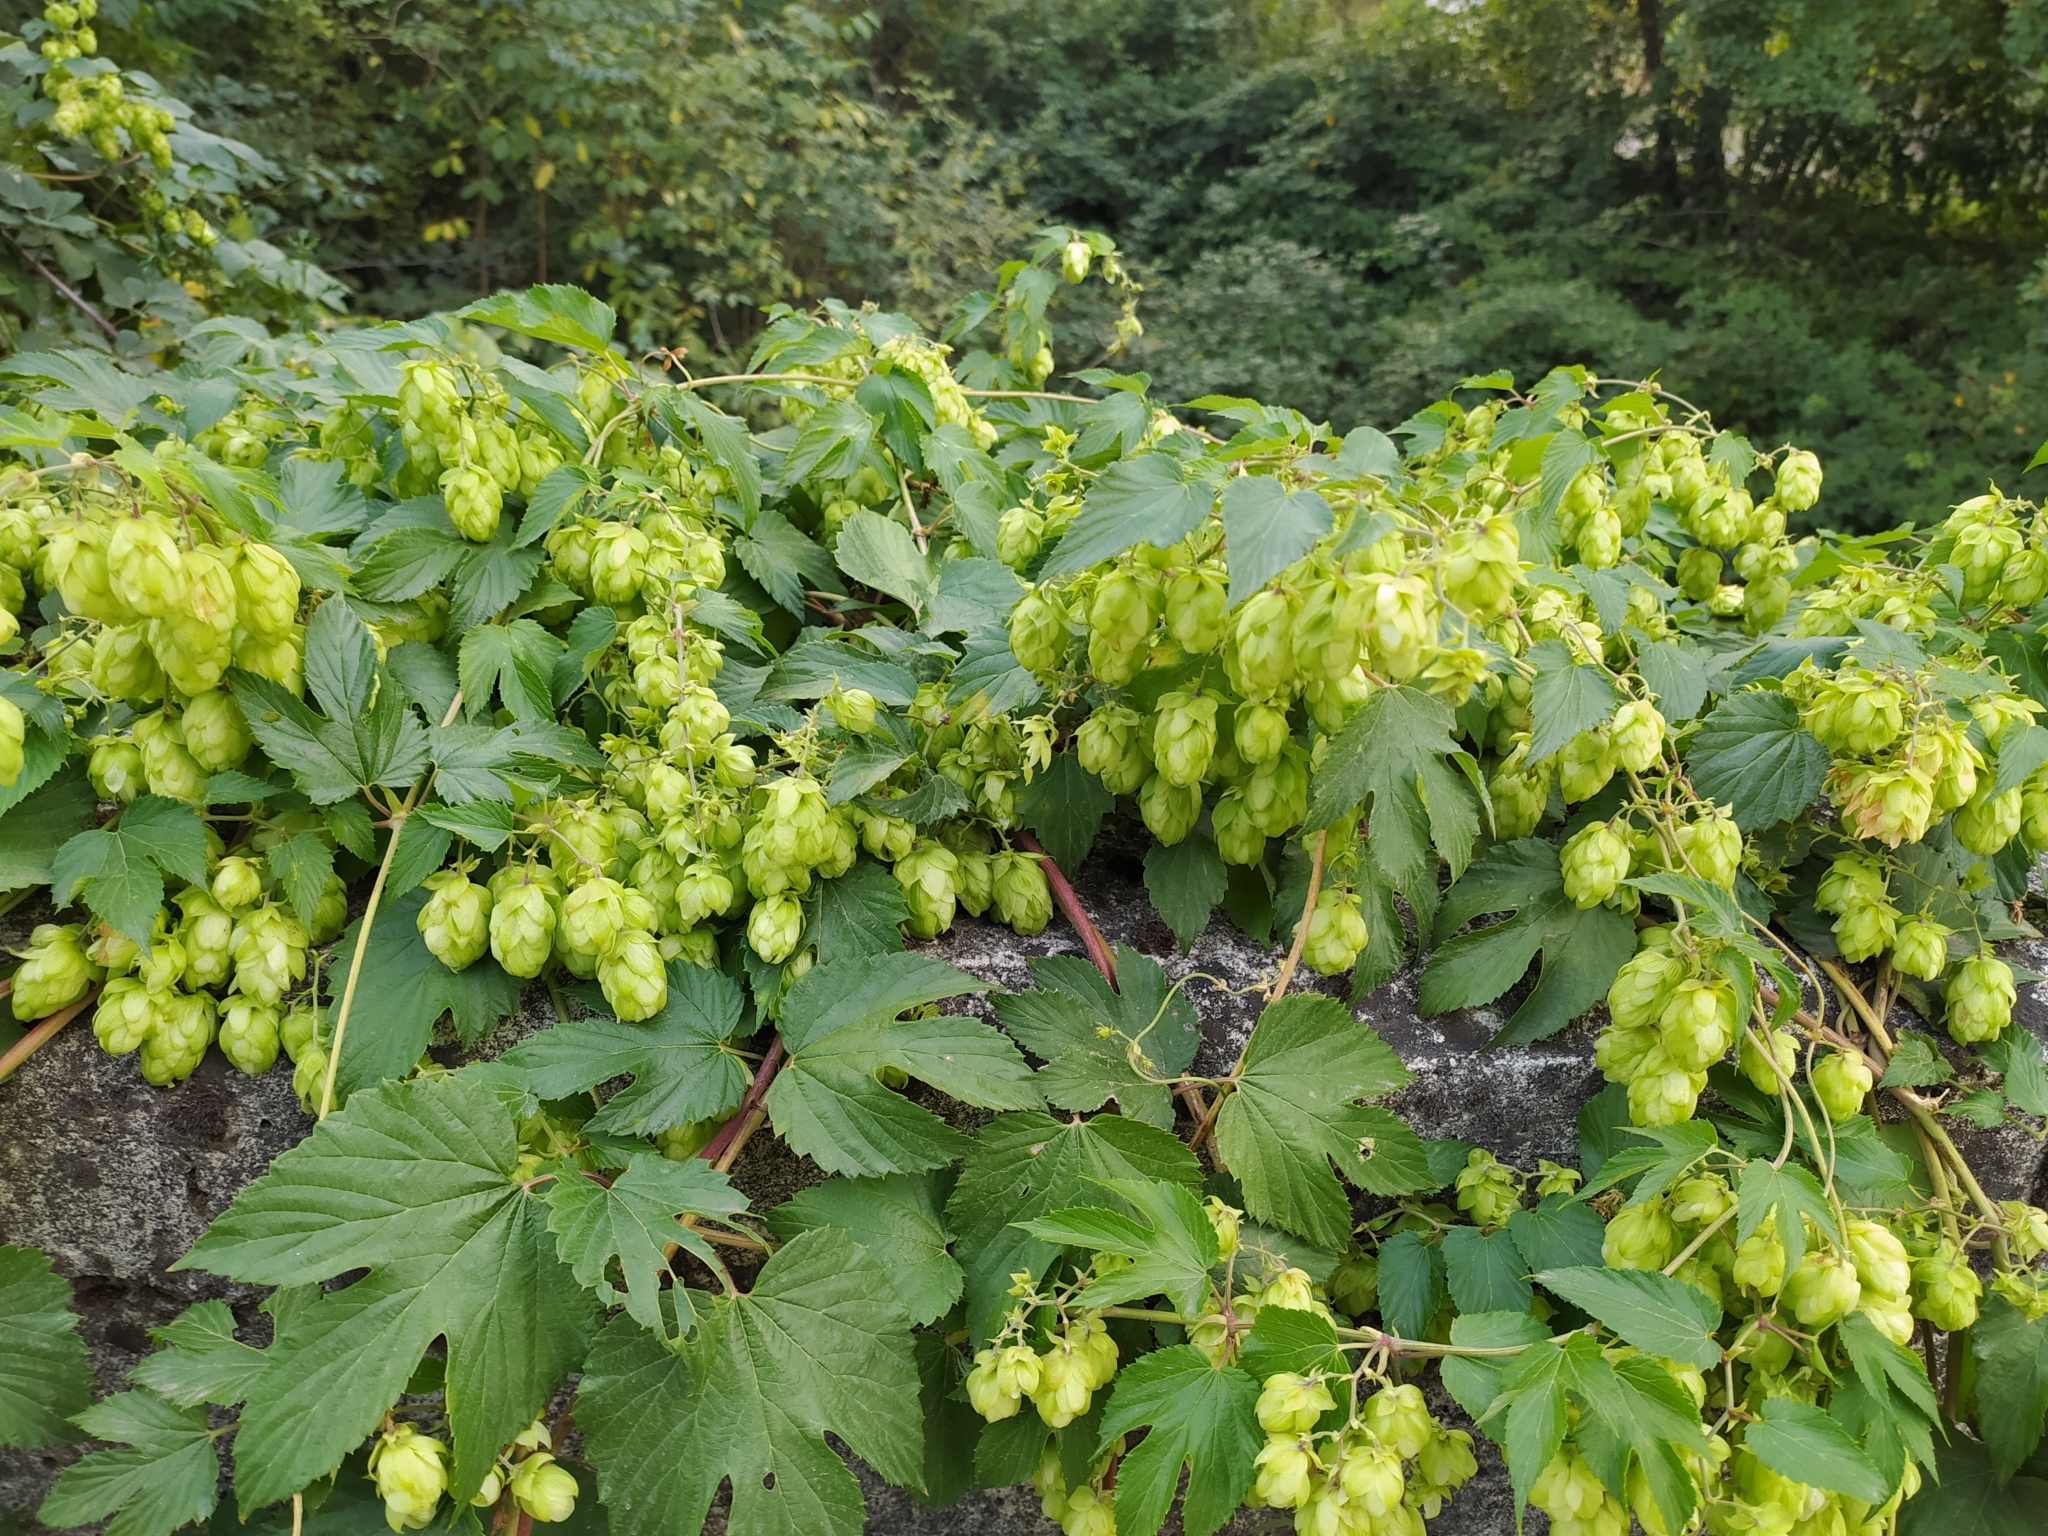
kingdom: Plantae
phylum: Tracheophyta
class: Magnoliopsida
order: Rosales
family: Cannabaceae
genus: Humulus
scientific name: Humulus lupulus
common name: Hop
